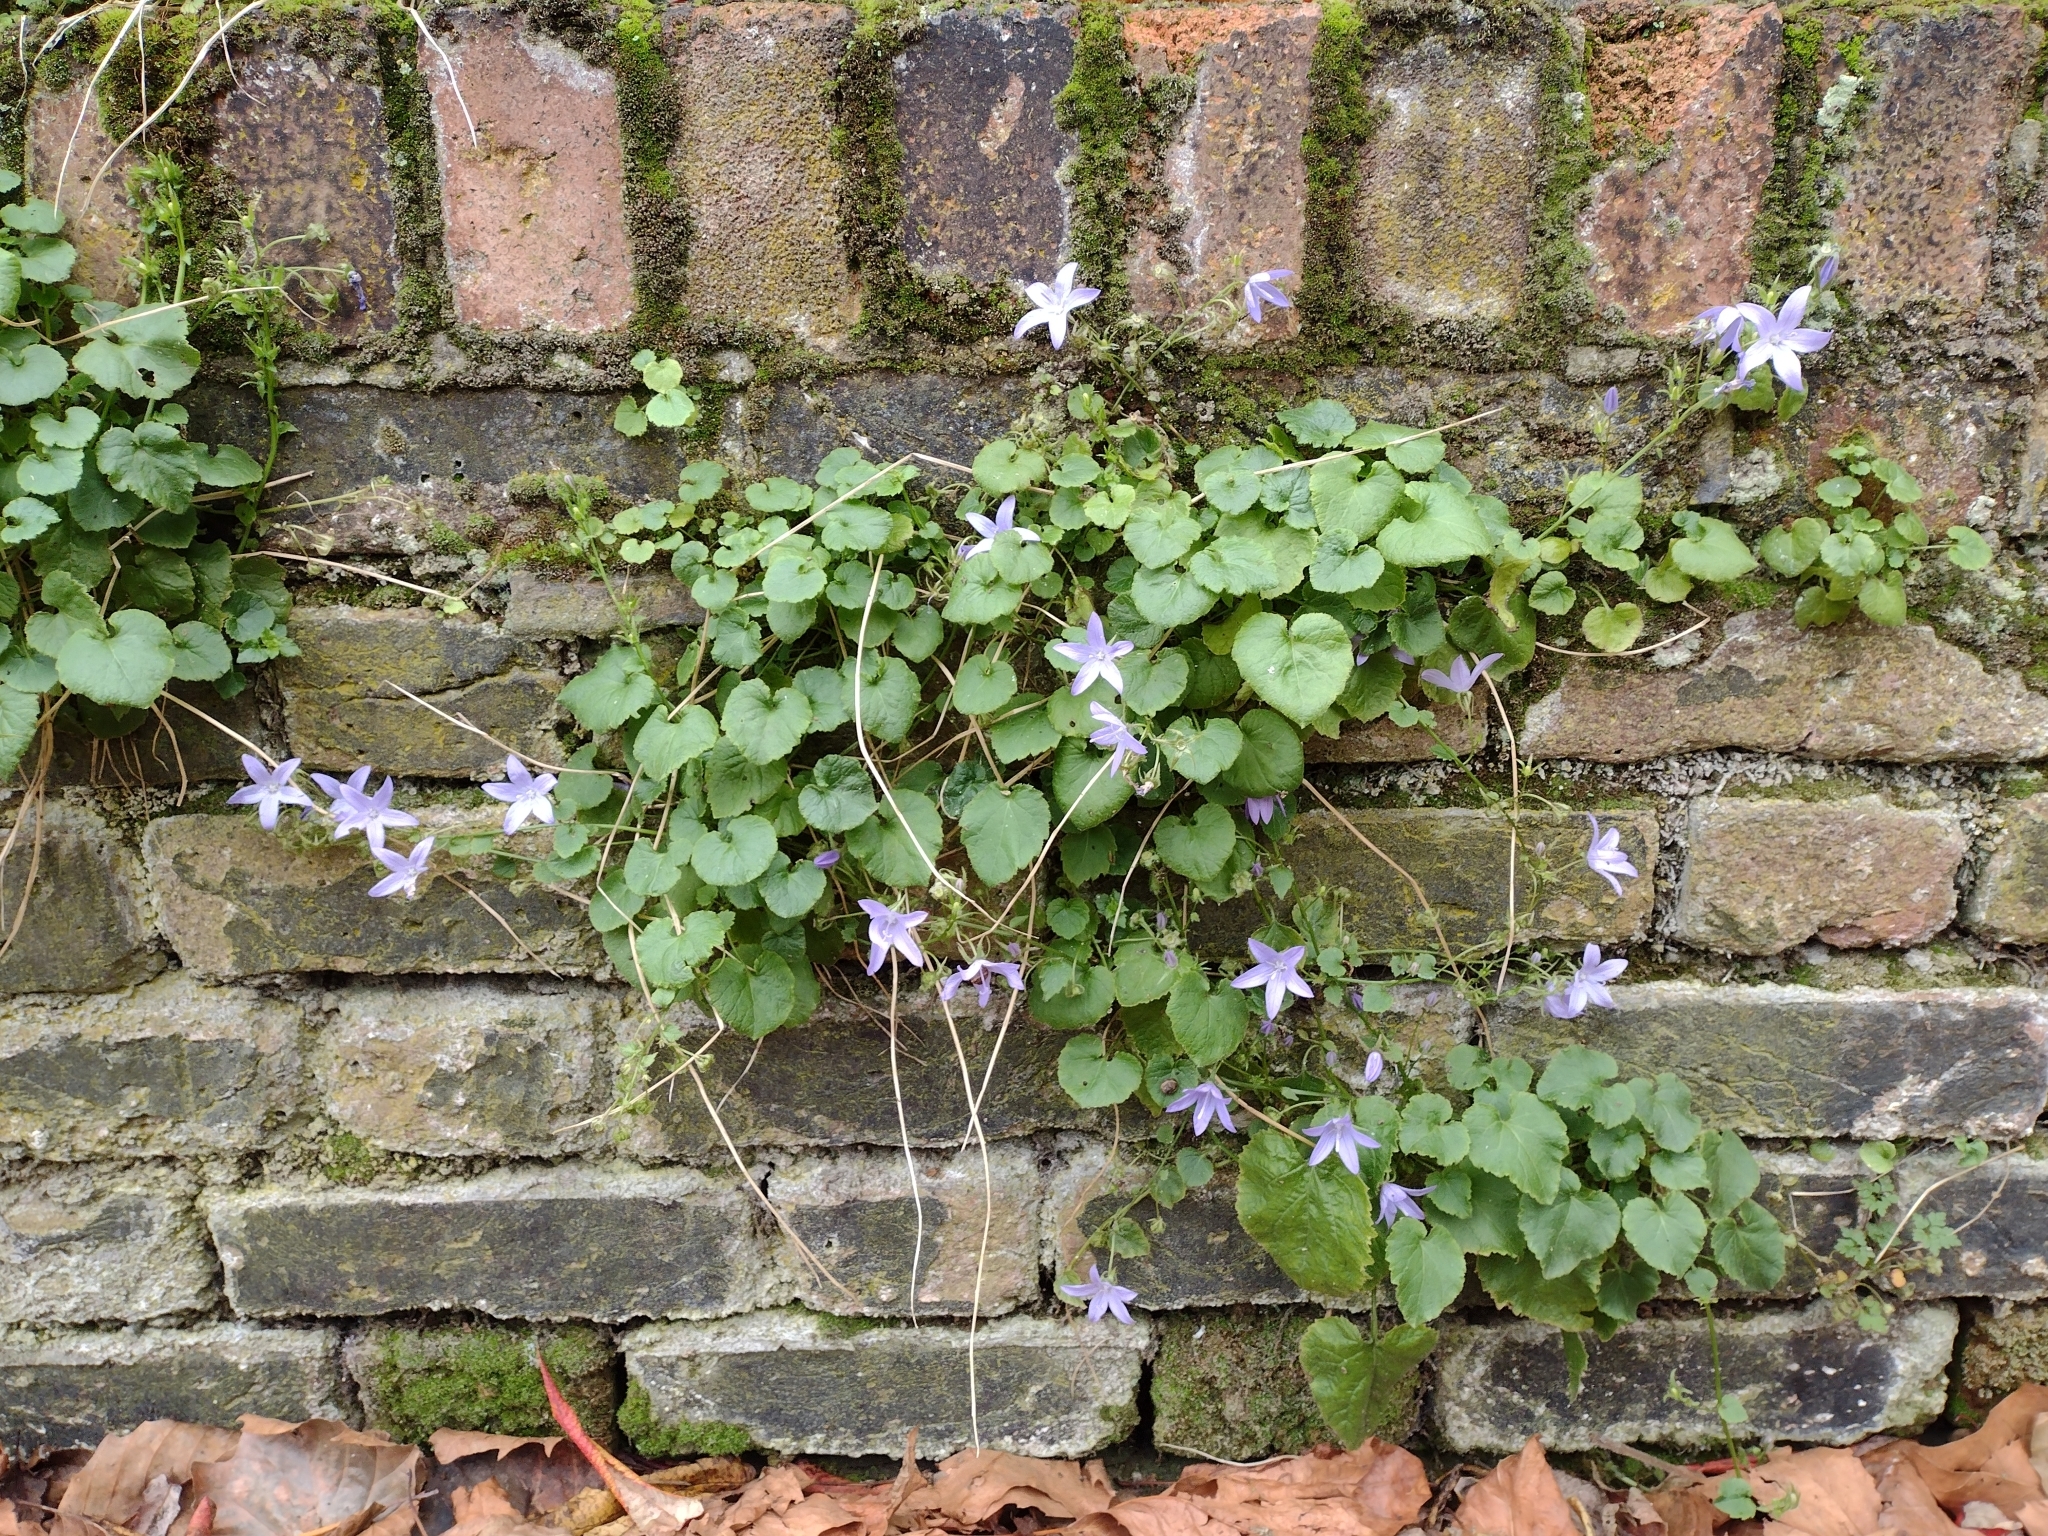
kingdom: Plantae
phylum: Tracheophyta
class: Magnoliopsida
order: Asterales
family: Campanulaceae
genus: Campanula
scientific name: Campanula poscharskyana
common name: Trailing bellflower
